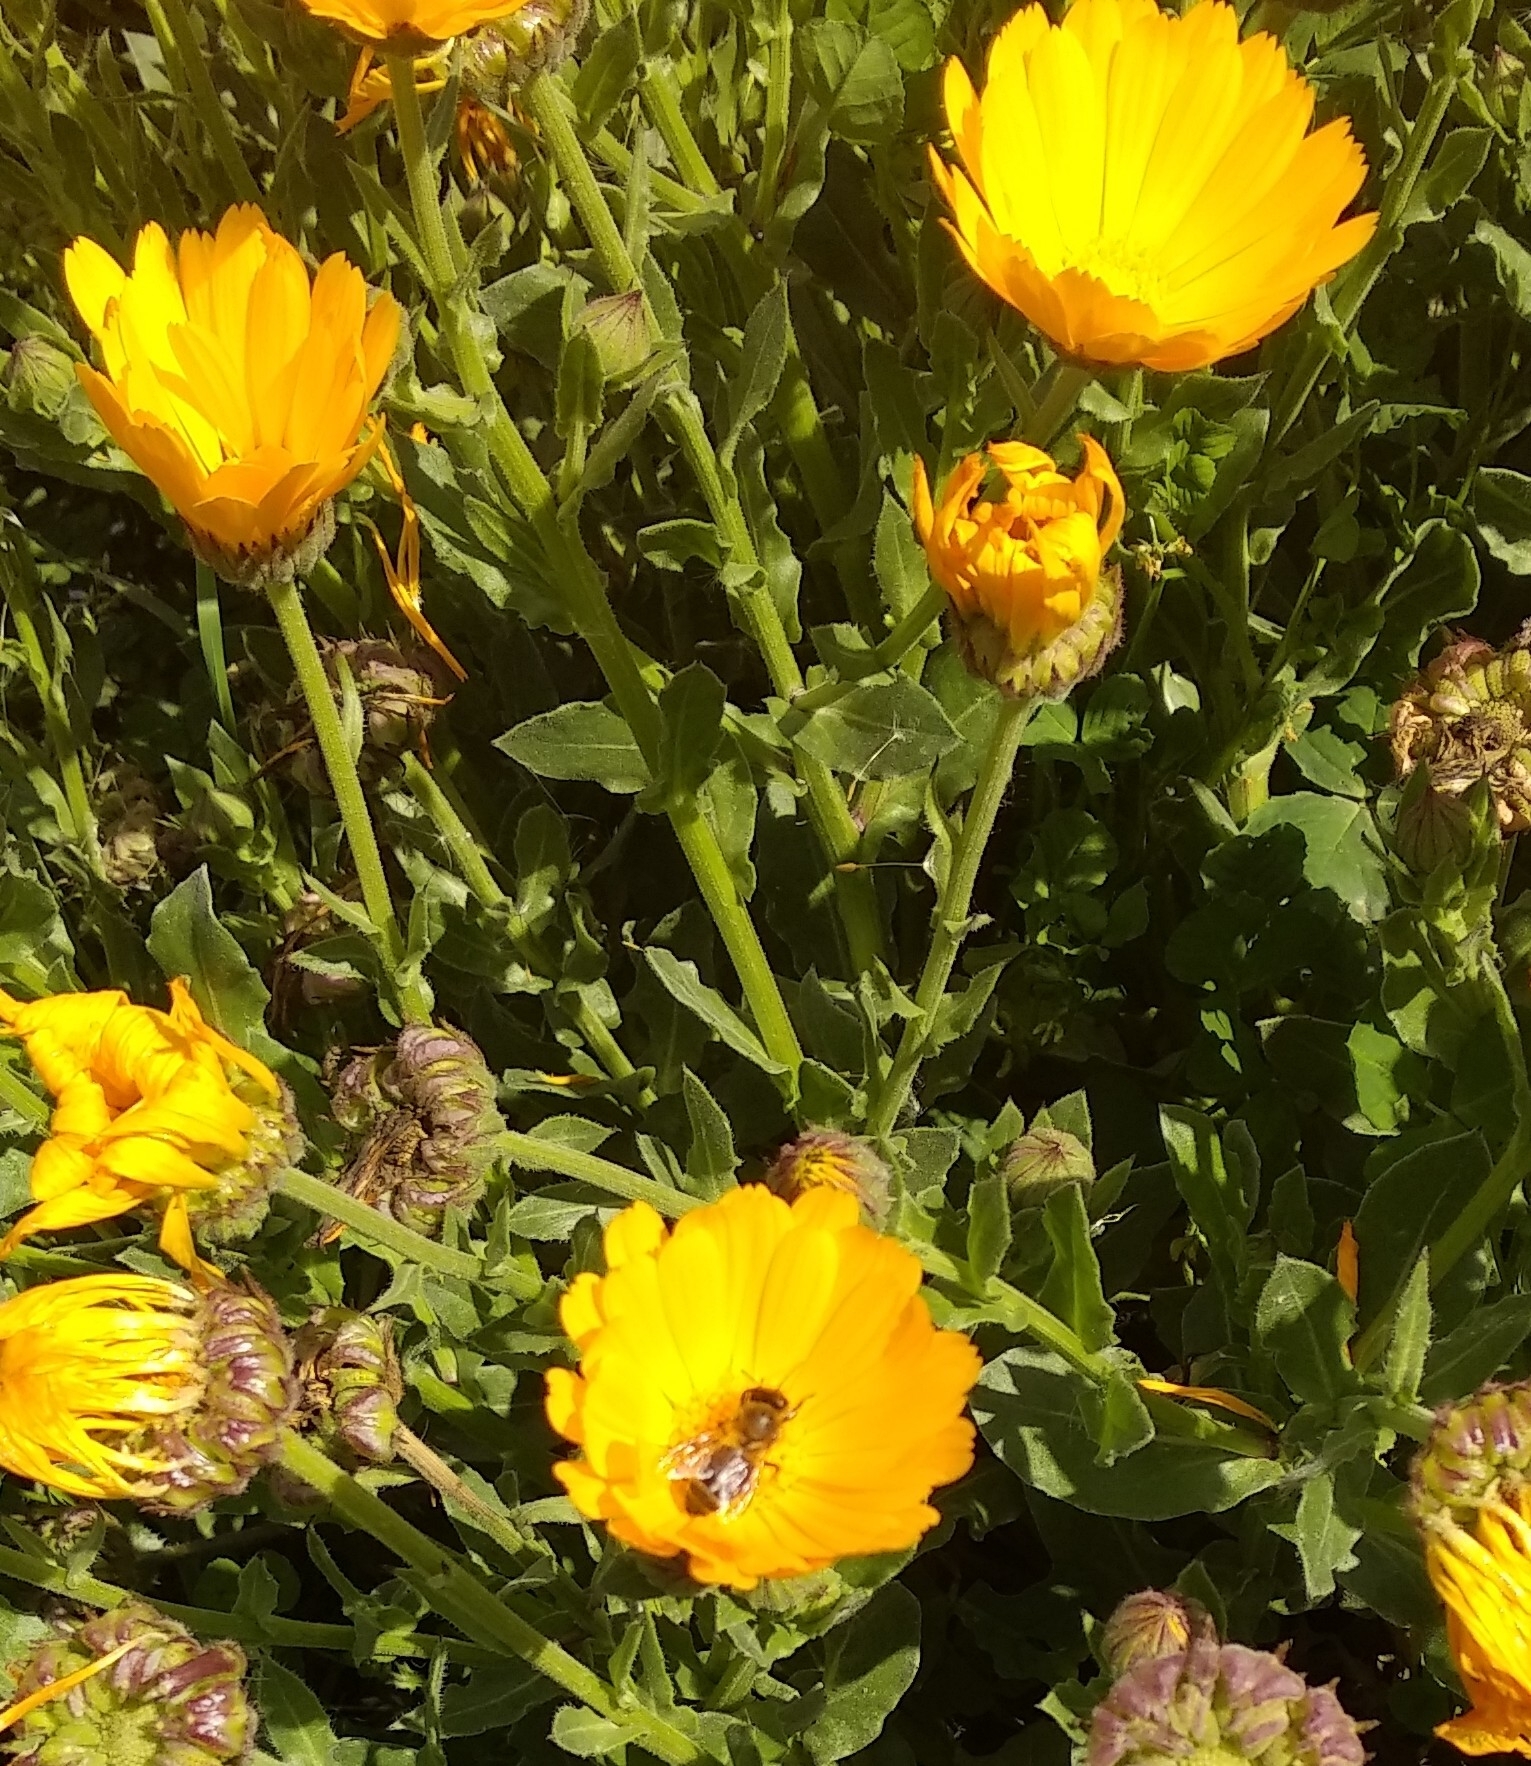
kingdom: Animalia
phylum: Arthropoda
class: Insecta
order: Hymenoptera
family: Apidae
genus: Apis
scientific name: Apis mellifera
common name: Honey bee
